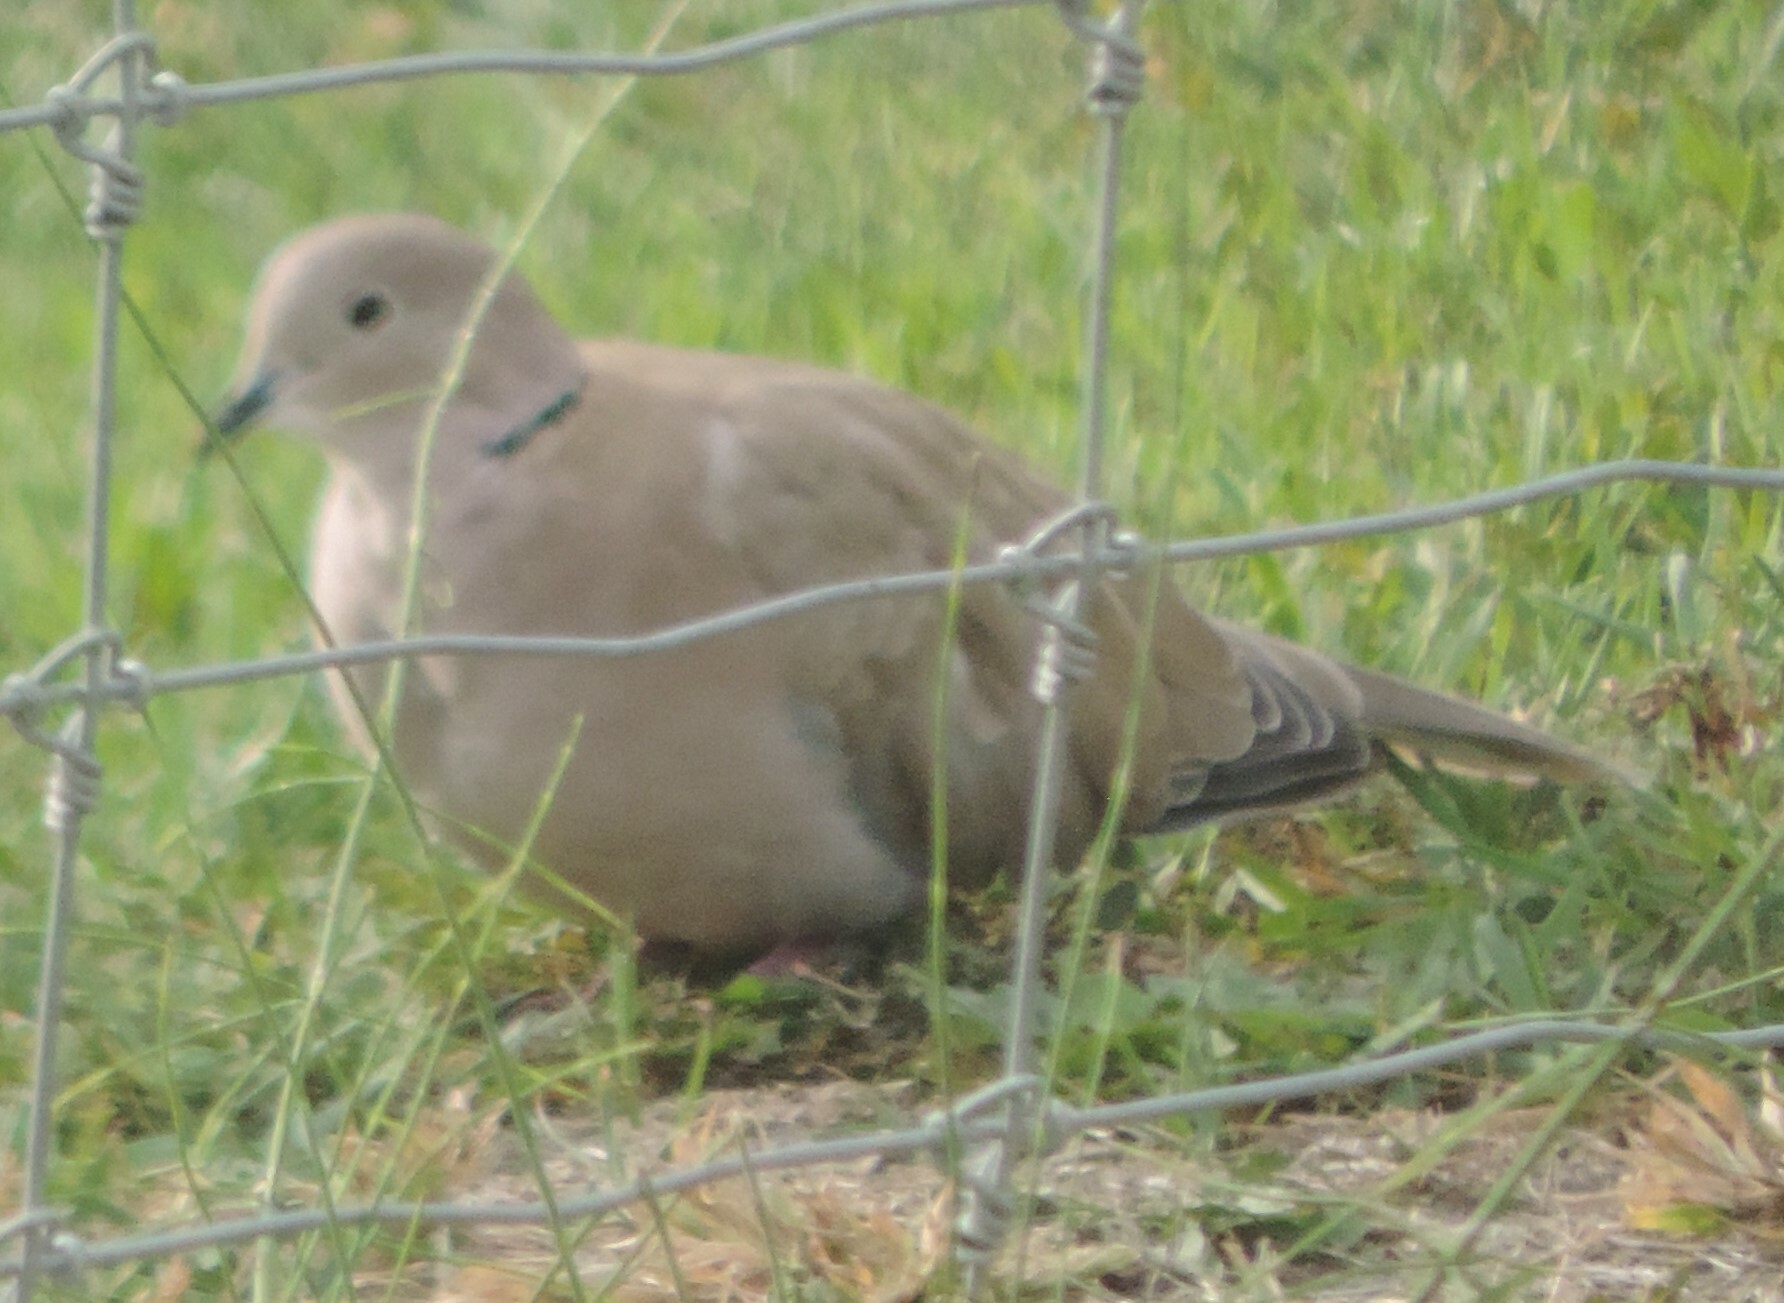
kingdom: Animalia
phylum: Chordata
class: Aves
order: Columbiformes
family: Columbidae
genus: Streptopelia
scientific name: Streptopelia decaocto
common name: Eurasian collared dove
